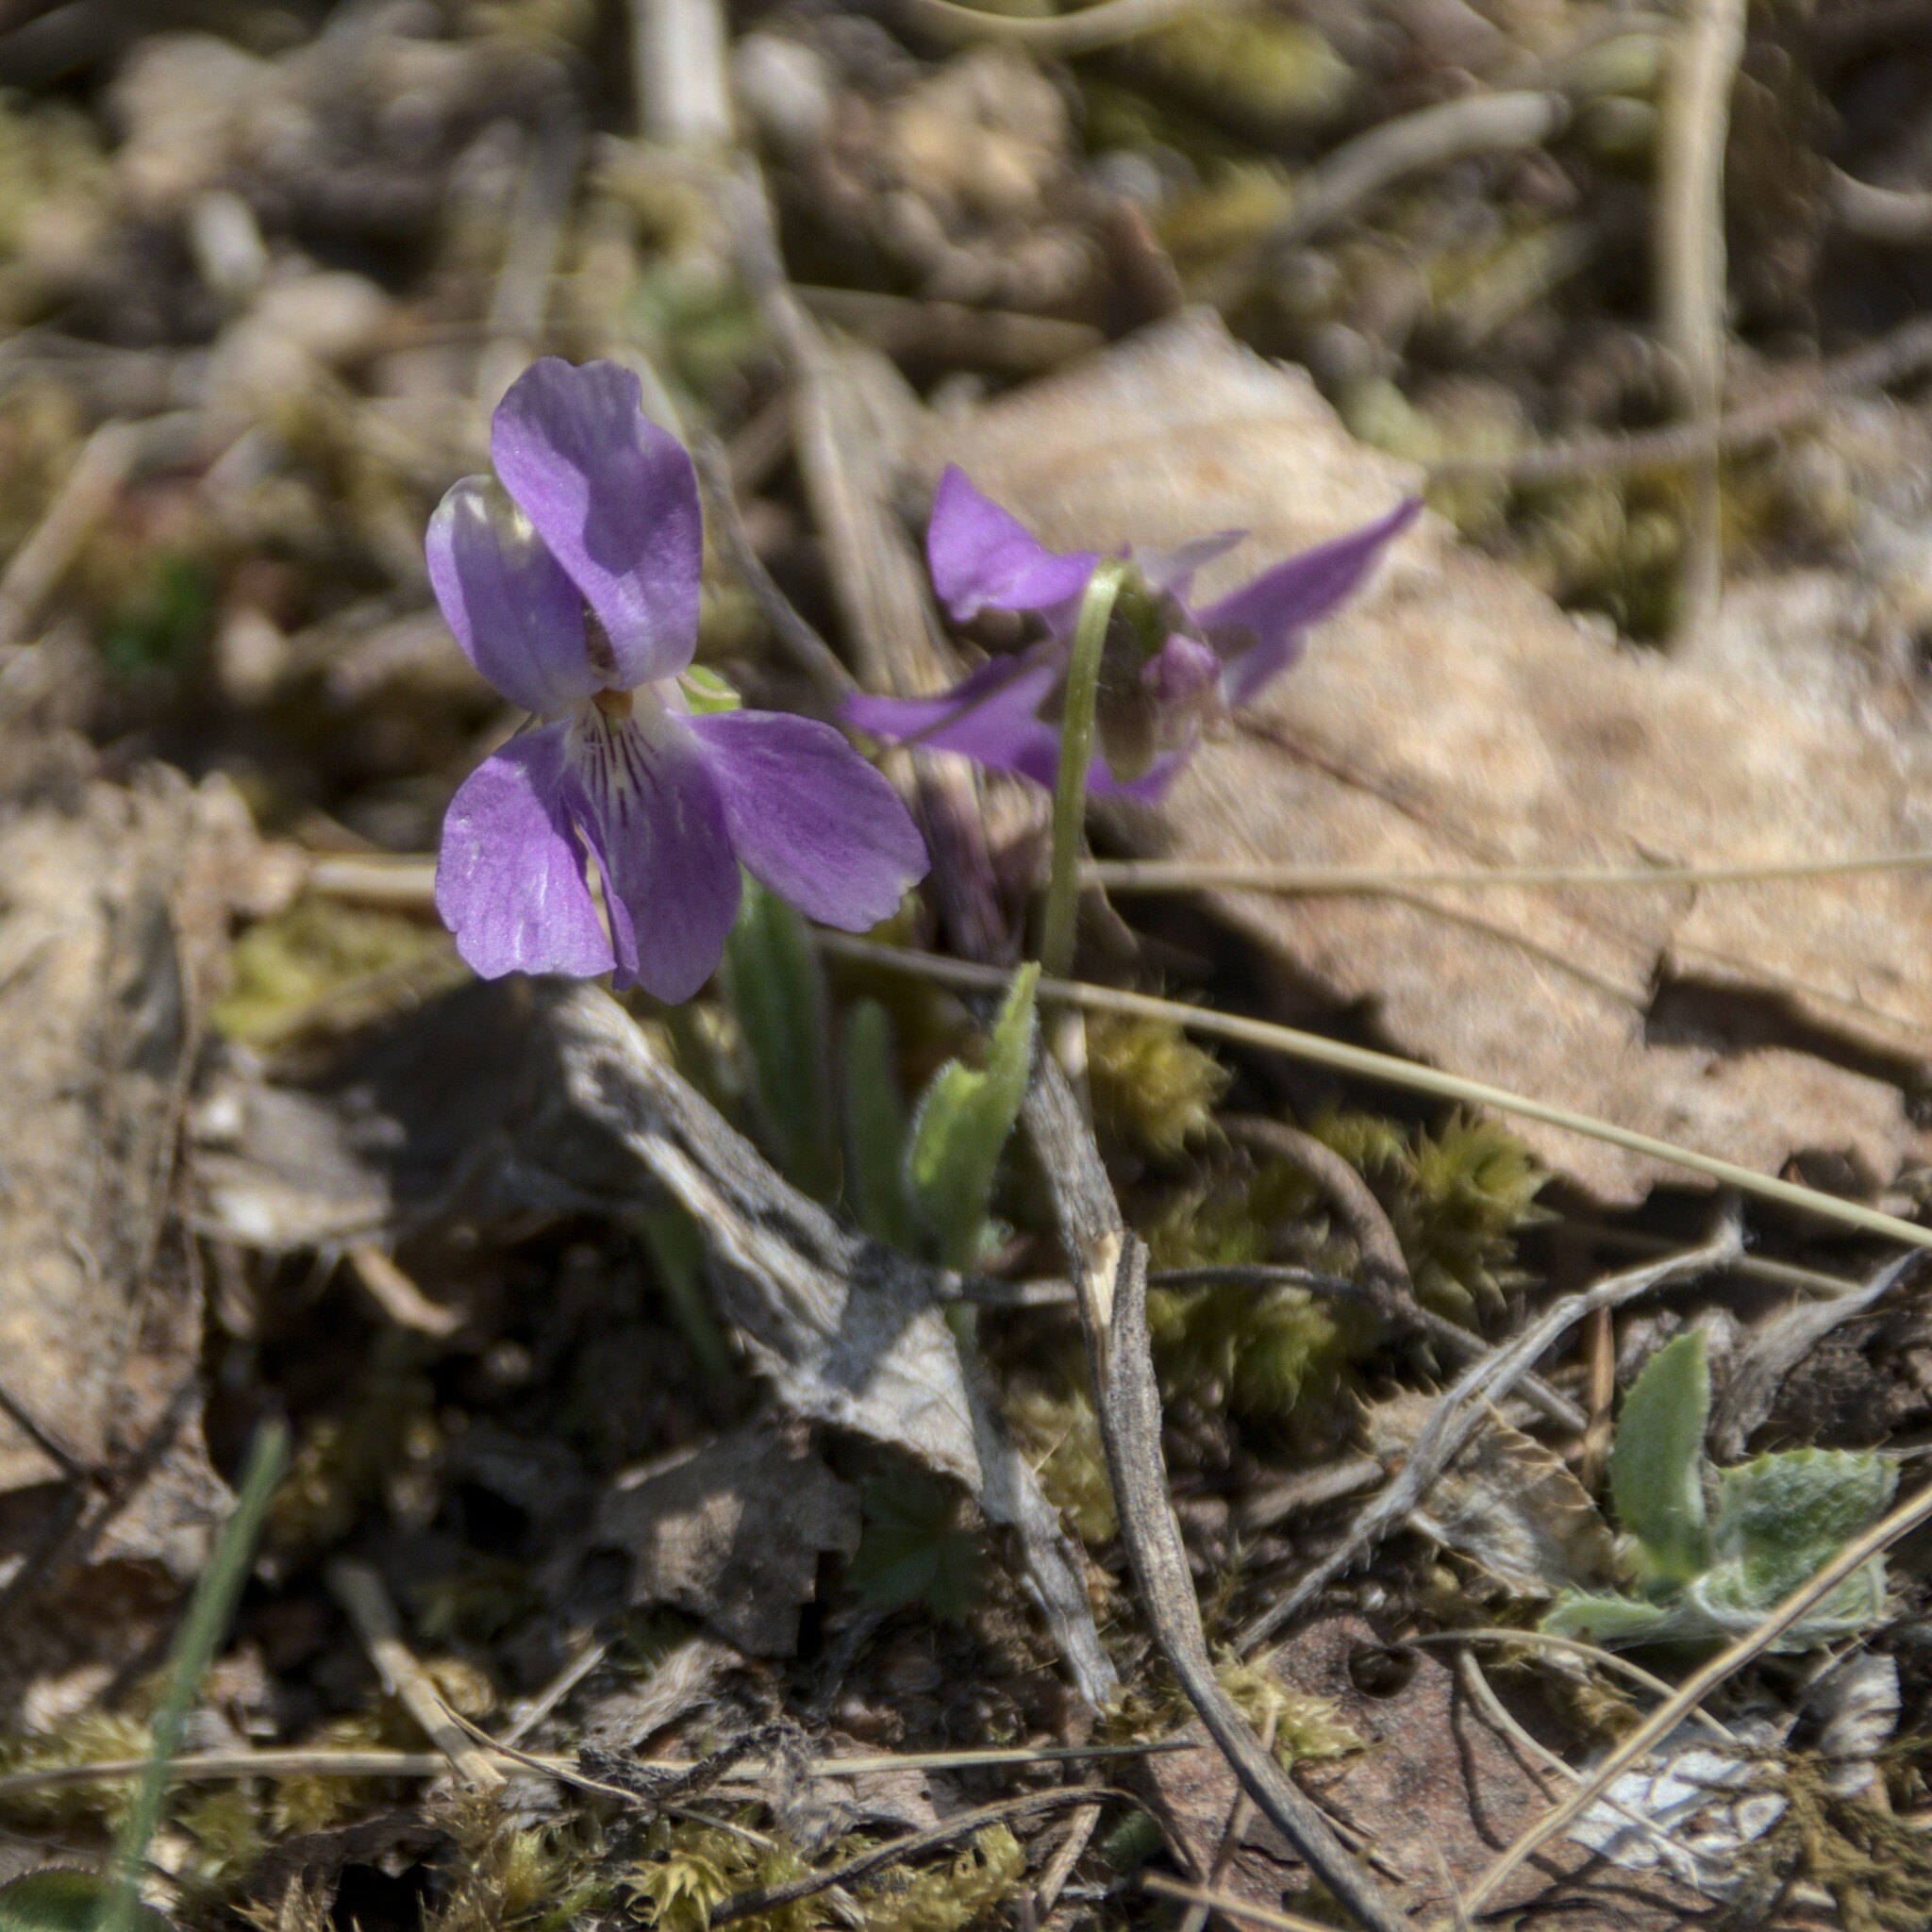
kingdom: Plantae
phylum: Tracheophyta
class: Magnoliopsida
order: Malpighiales
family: Violaceae
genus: Viola
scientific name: Viola hirta
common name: Hairy violet
